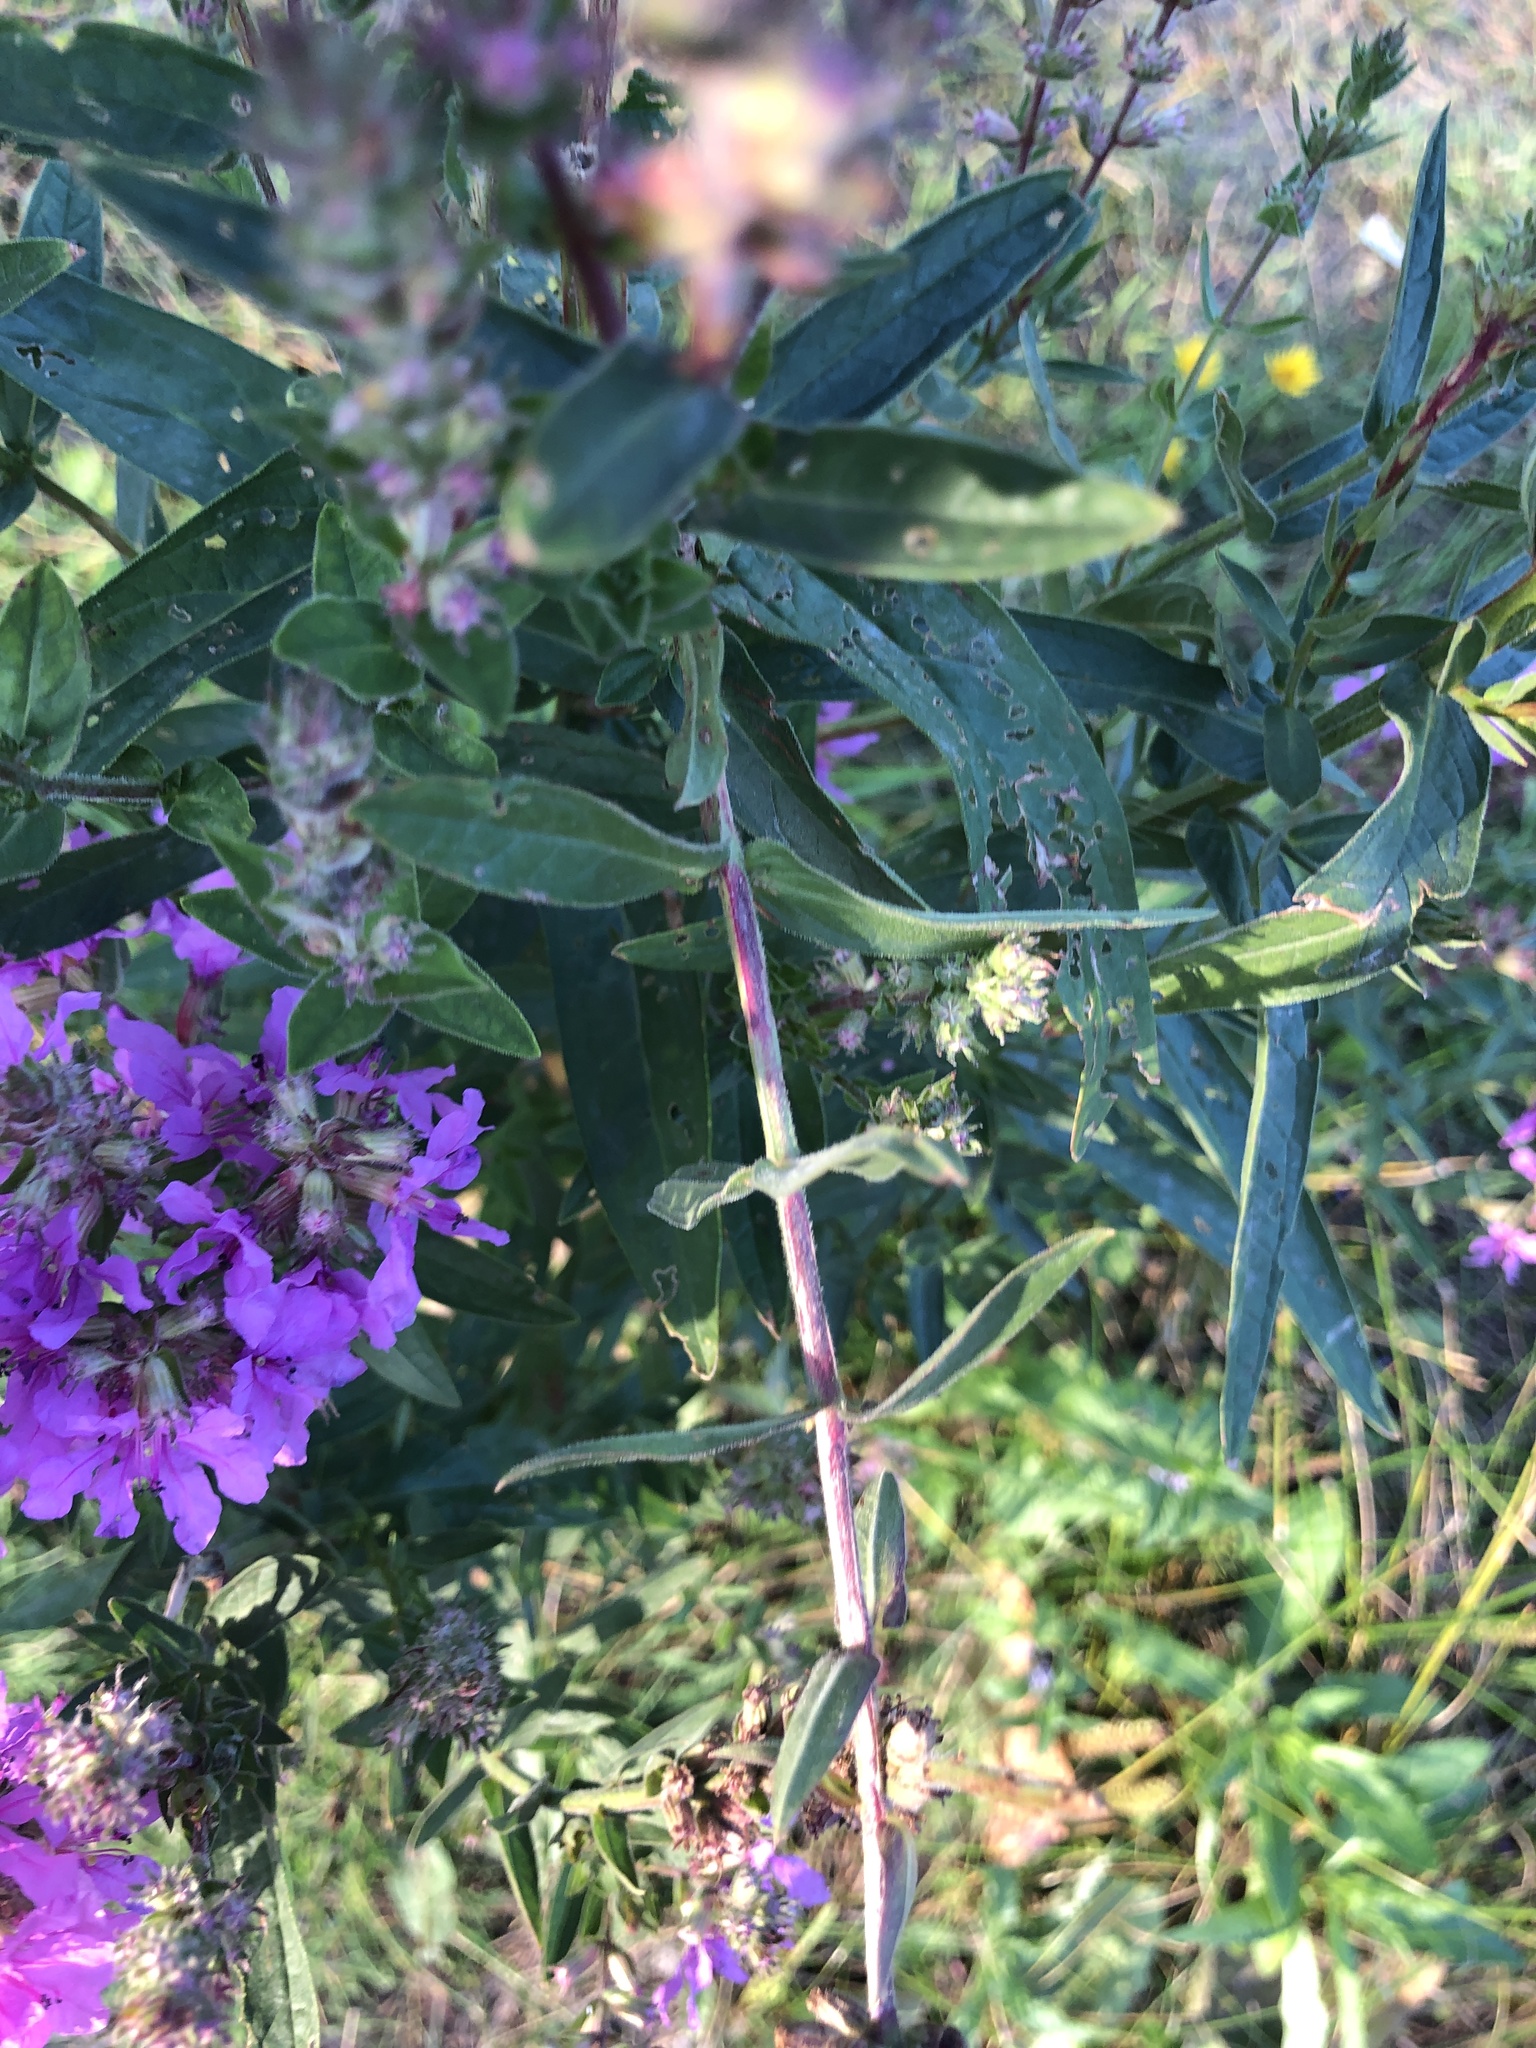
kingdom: Plantae
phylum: Tracheophyta
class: Magnoliopsida
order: Myrtales
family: Lythraceae
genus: Lythrum
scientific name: Lythrum salicaria
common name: Purple loosestrife
